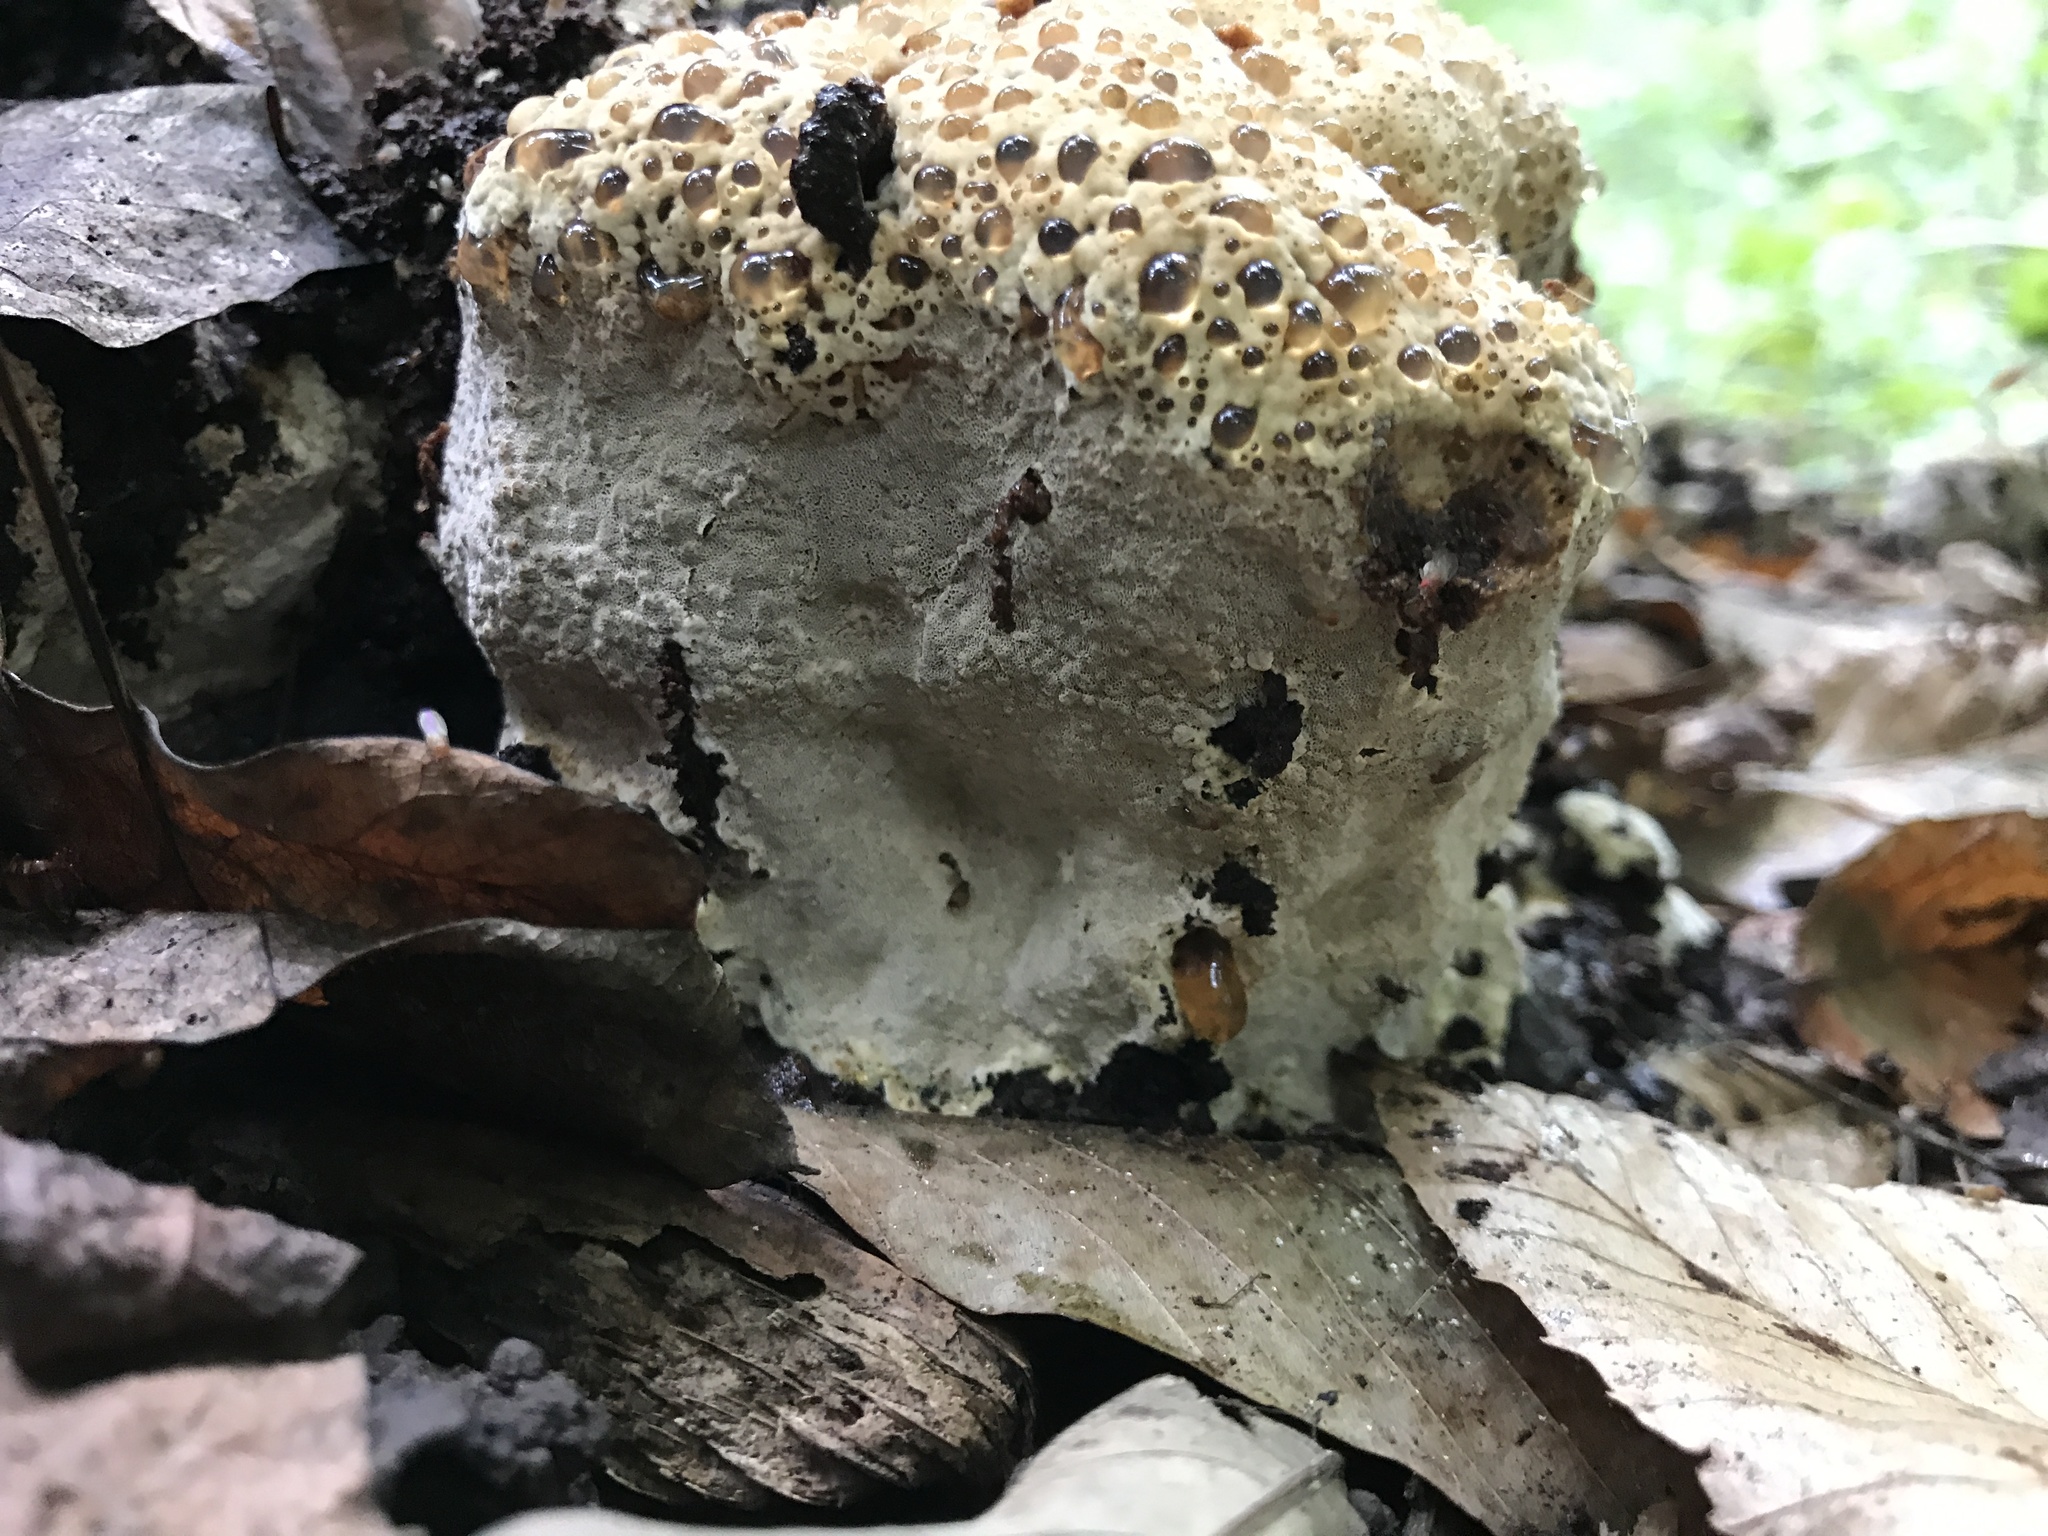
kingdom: Fungi
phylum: Basidiomycota
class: Agaricomycetes
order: Hymenochaetales
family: Hymenochaetaceae
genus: Pseudoinonotus
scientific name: Pseudoinonotus dryadeus
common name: Oak bracket
